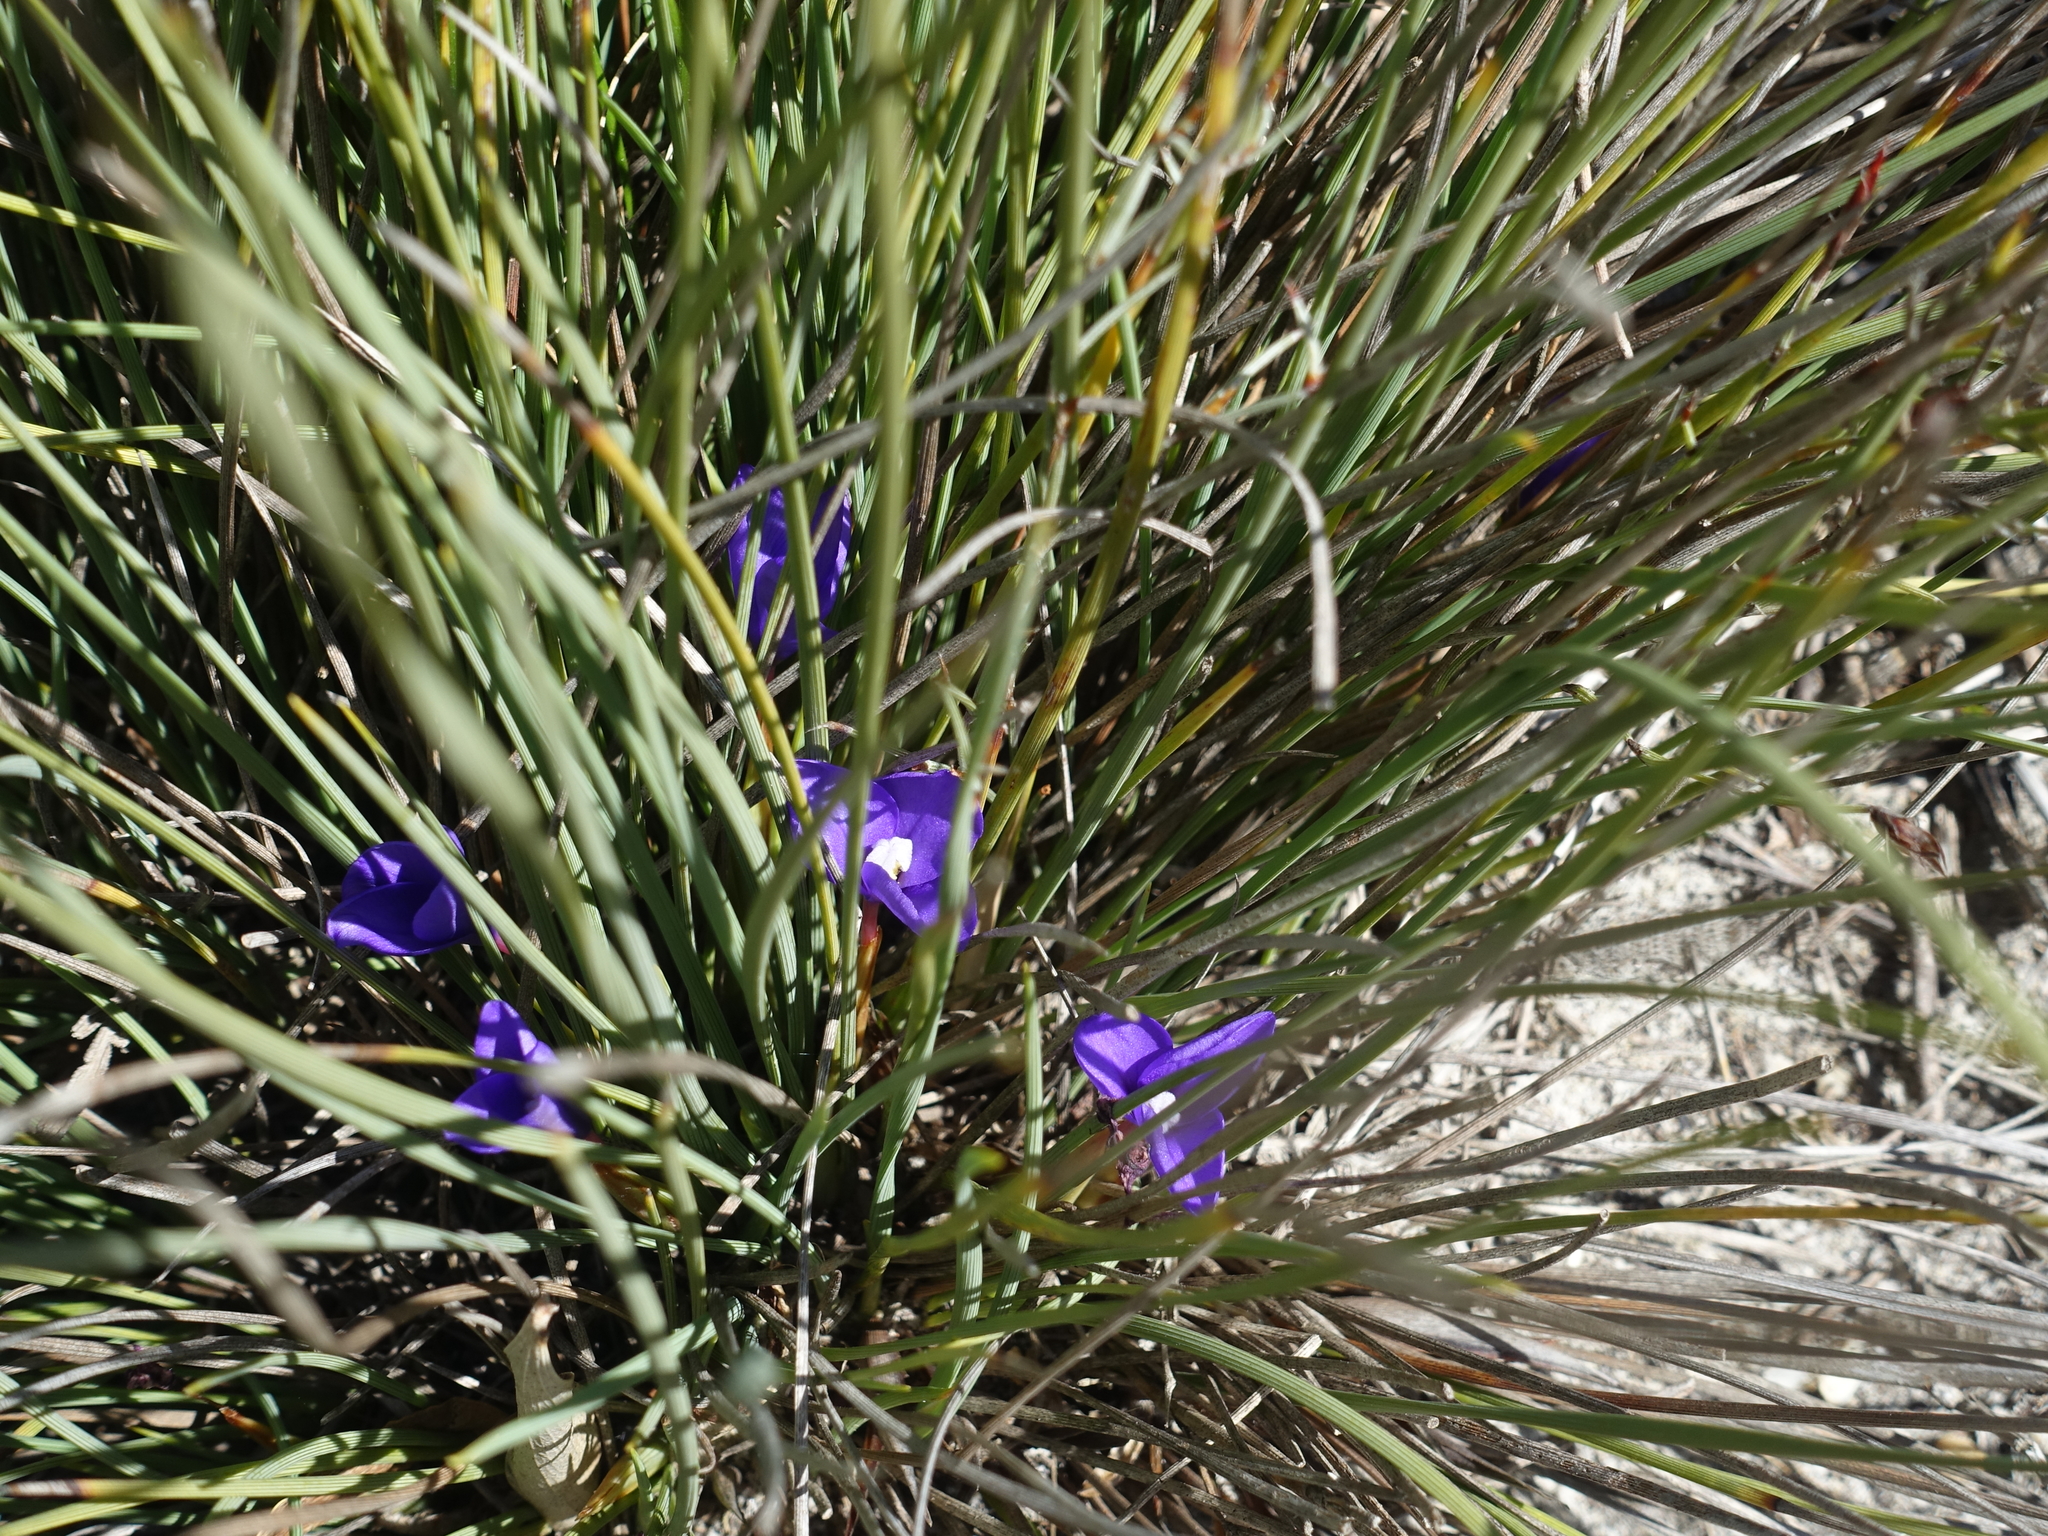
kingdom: Plantae
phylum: Tracheophyta
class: Liliopsida
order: Asparagales
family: Iridaceae
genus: Patersonia
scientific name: Patersonia fragilis
